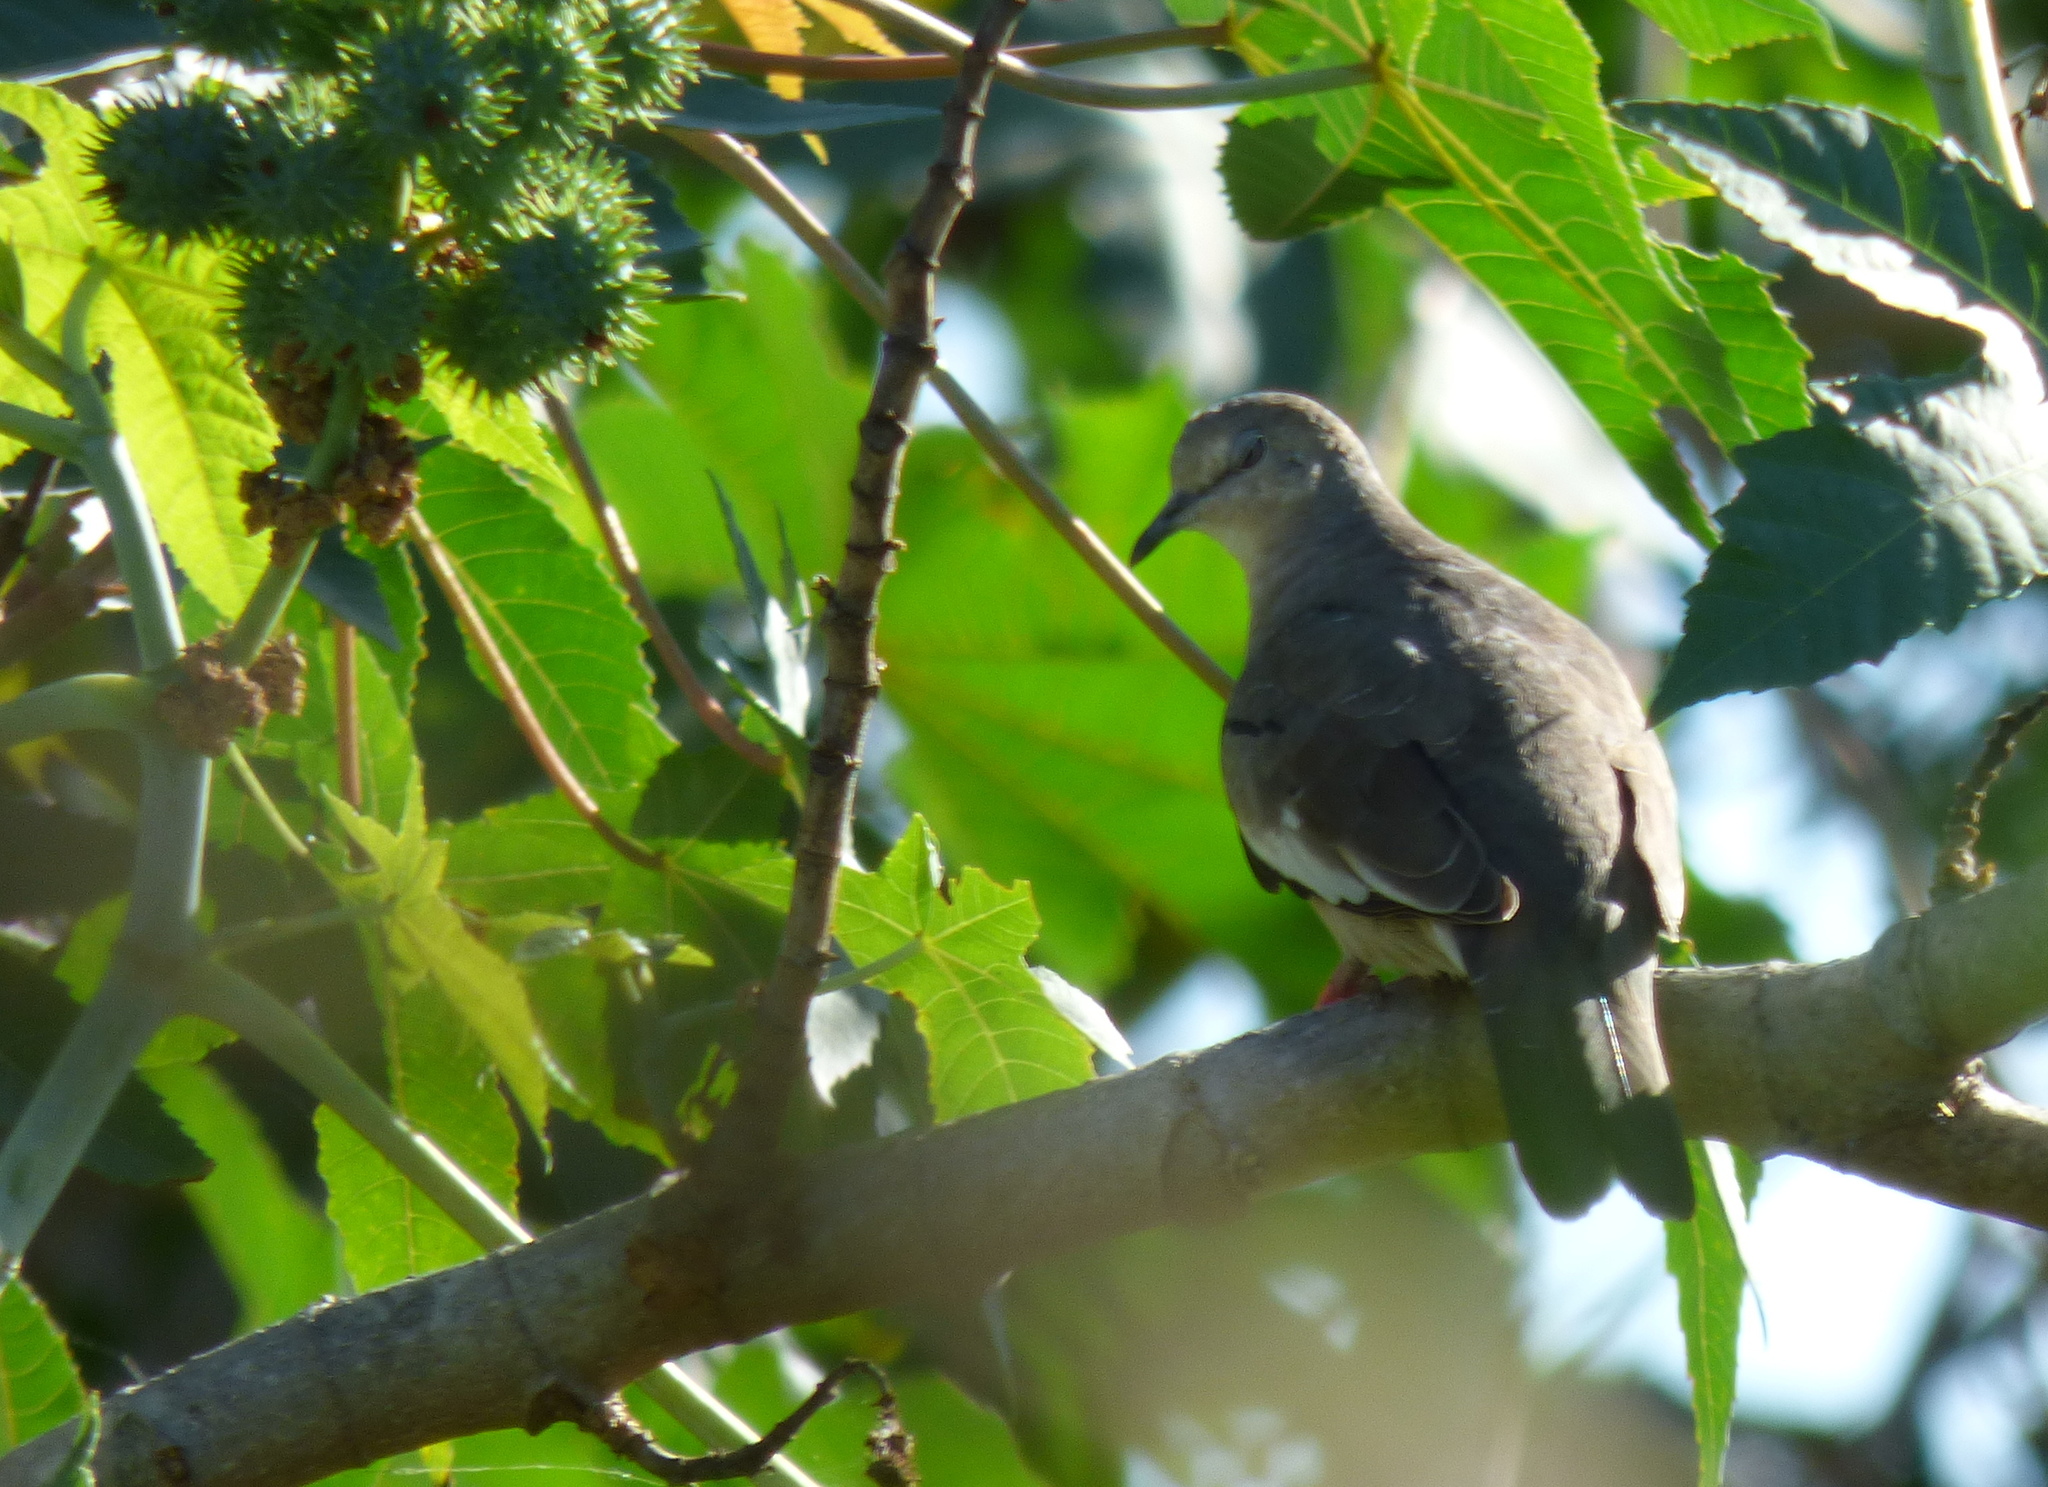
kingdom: Animalia
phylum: Chordata
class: Aves
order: Columbiformes
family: Columbidae
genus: Columbina
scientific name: Columbina picui
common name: Picui ground dove
